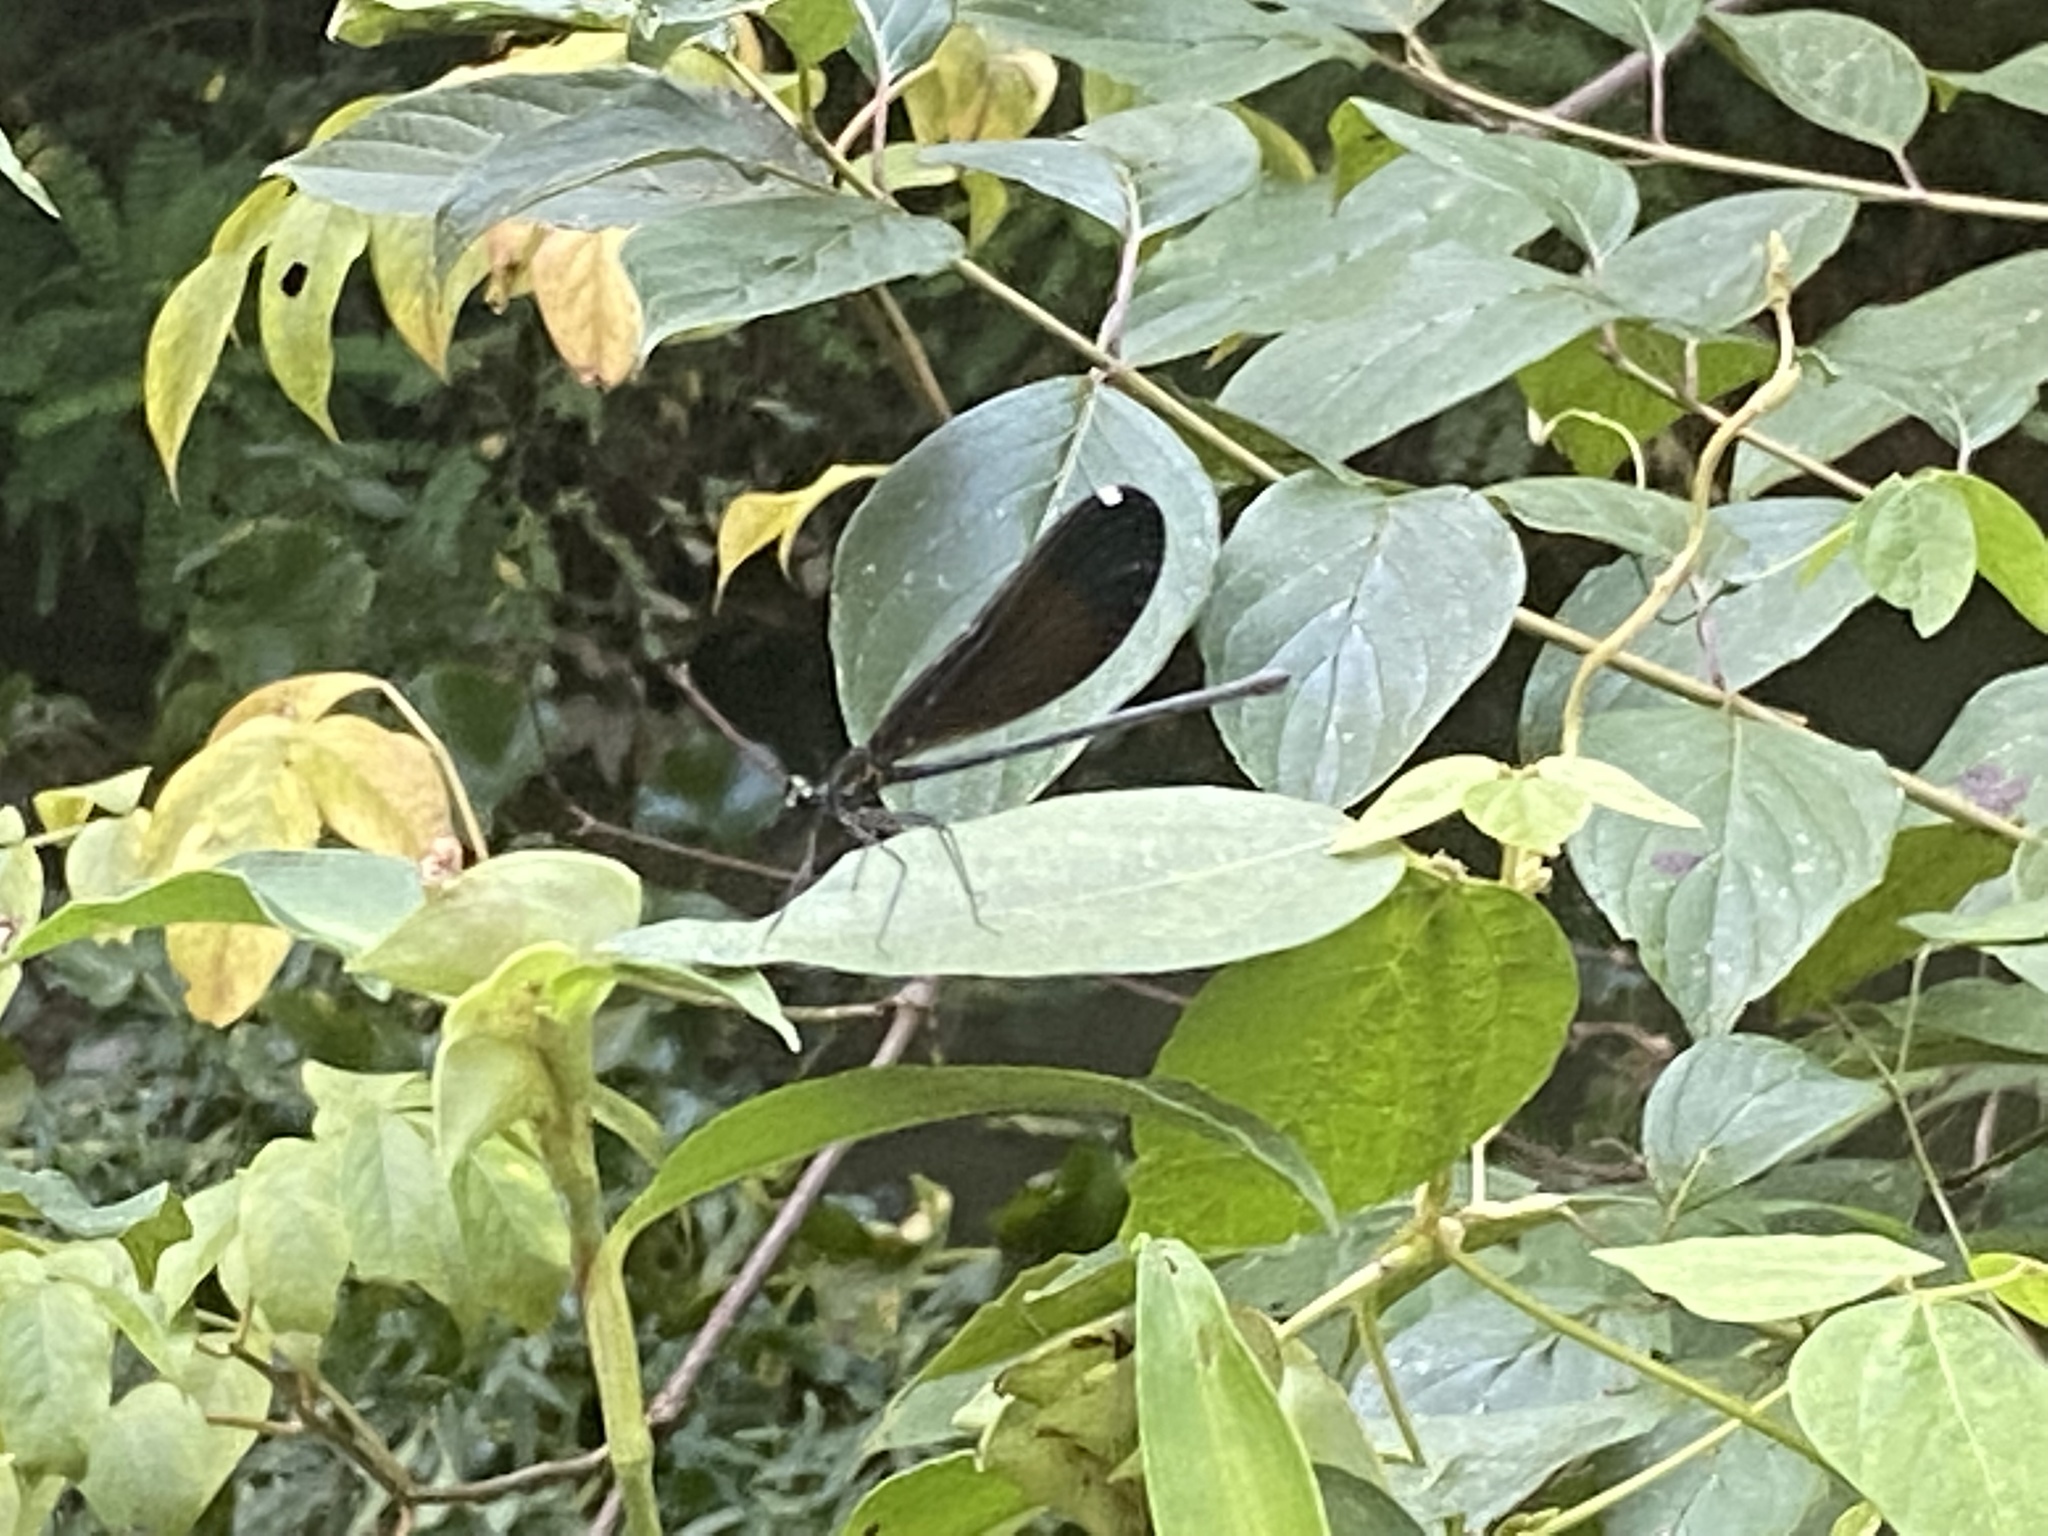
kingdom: Animalia
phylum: Arthropoda
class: Insecta
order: Odonata
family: Calopterygidae
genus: Calopteryx
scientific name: Calopteryx maculata
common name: Ebony jewelwing
